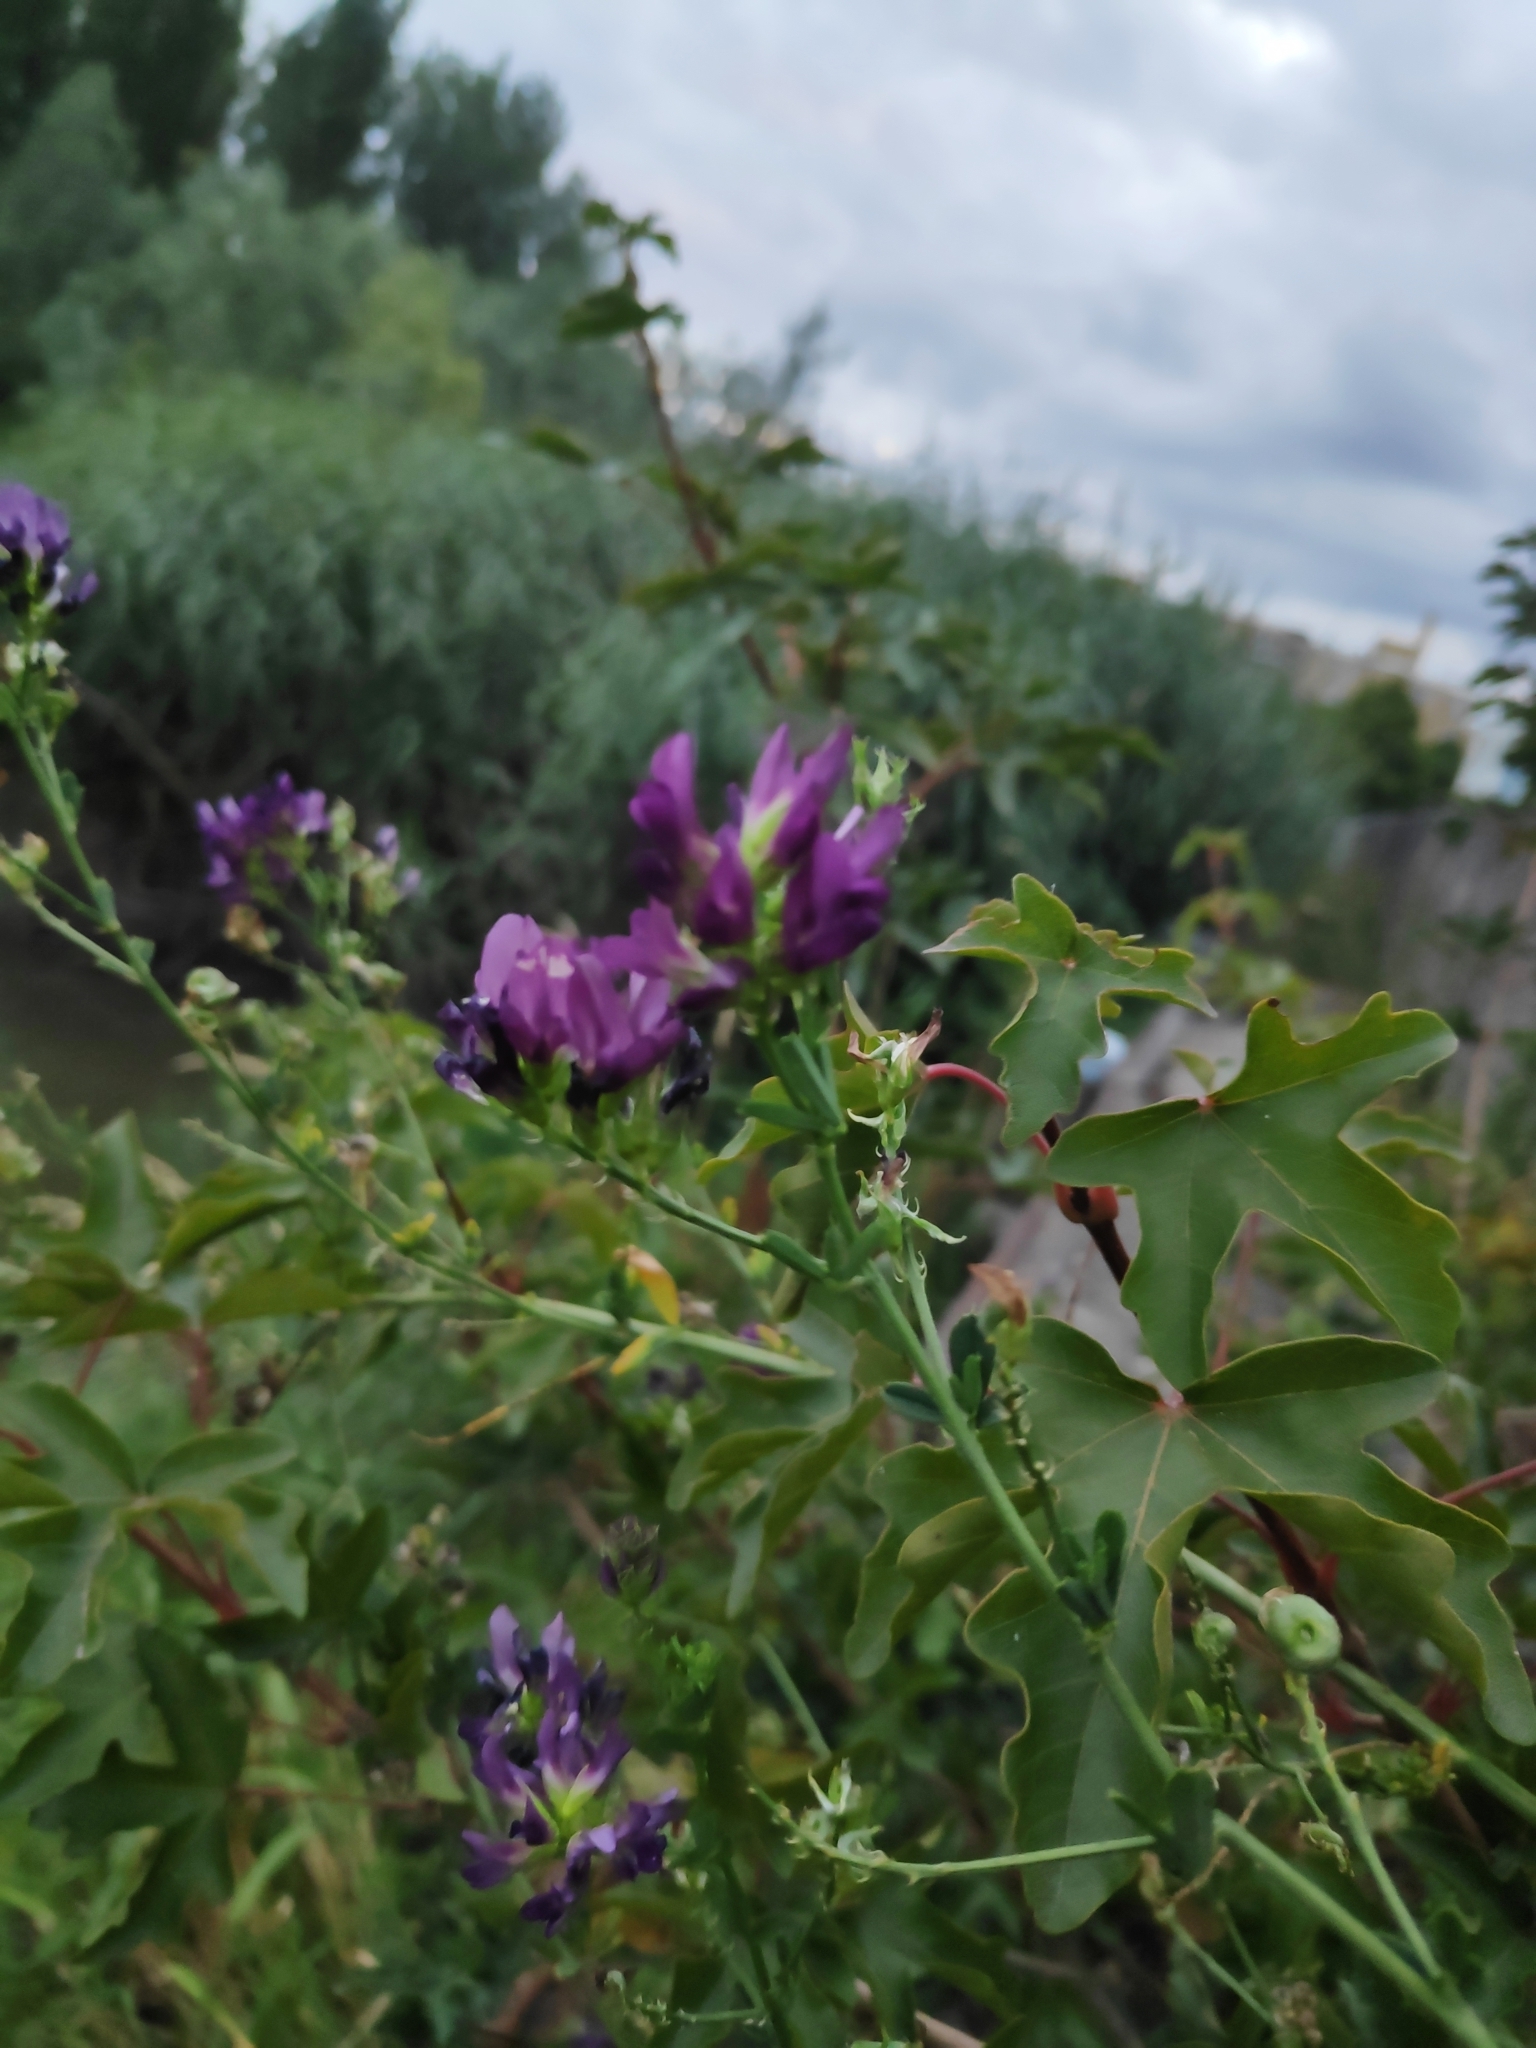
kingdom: Plantae
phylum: Tracheophyta
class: Magnoliopsida
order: Fabales
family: Fabaceae
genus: Medicago
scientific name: Medicago sativa
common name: Alfalfa
